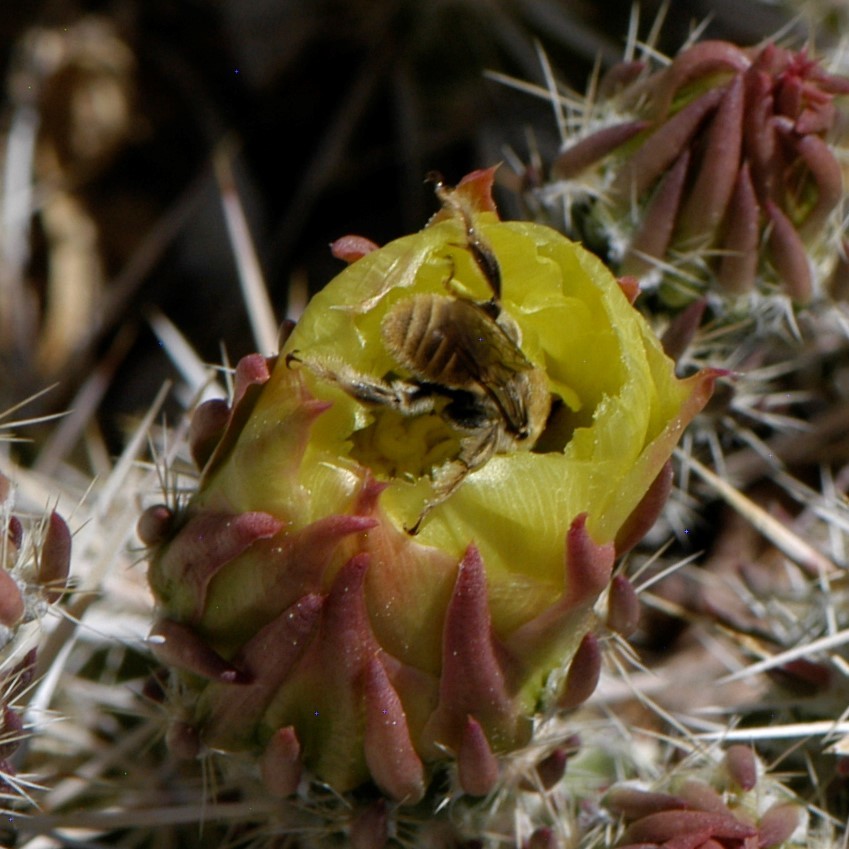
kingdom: Animalia
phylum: Arthropoda
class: Insecta
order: Hymenoptera
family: Apidae
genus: Diadasia
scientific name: Diadasia
